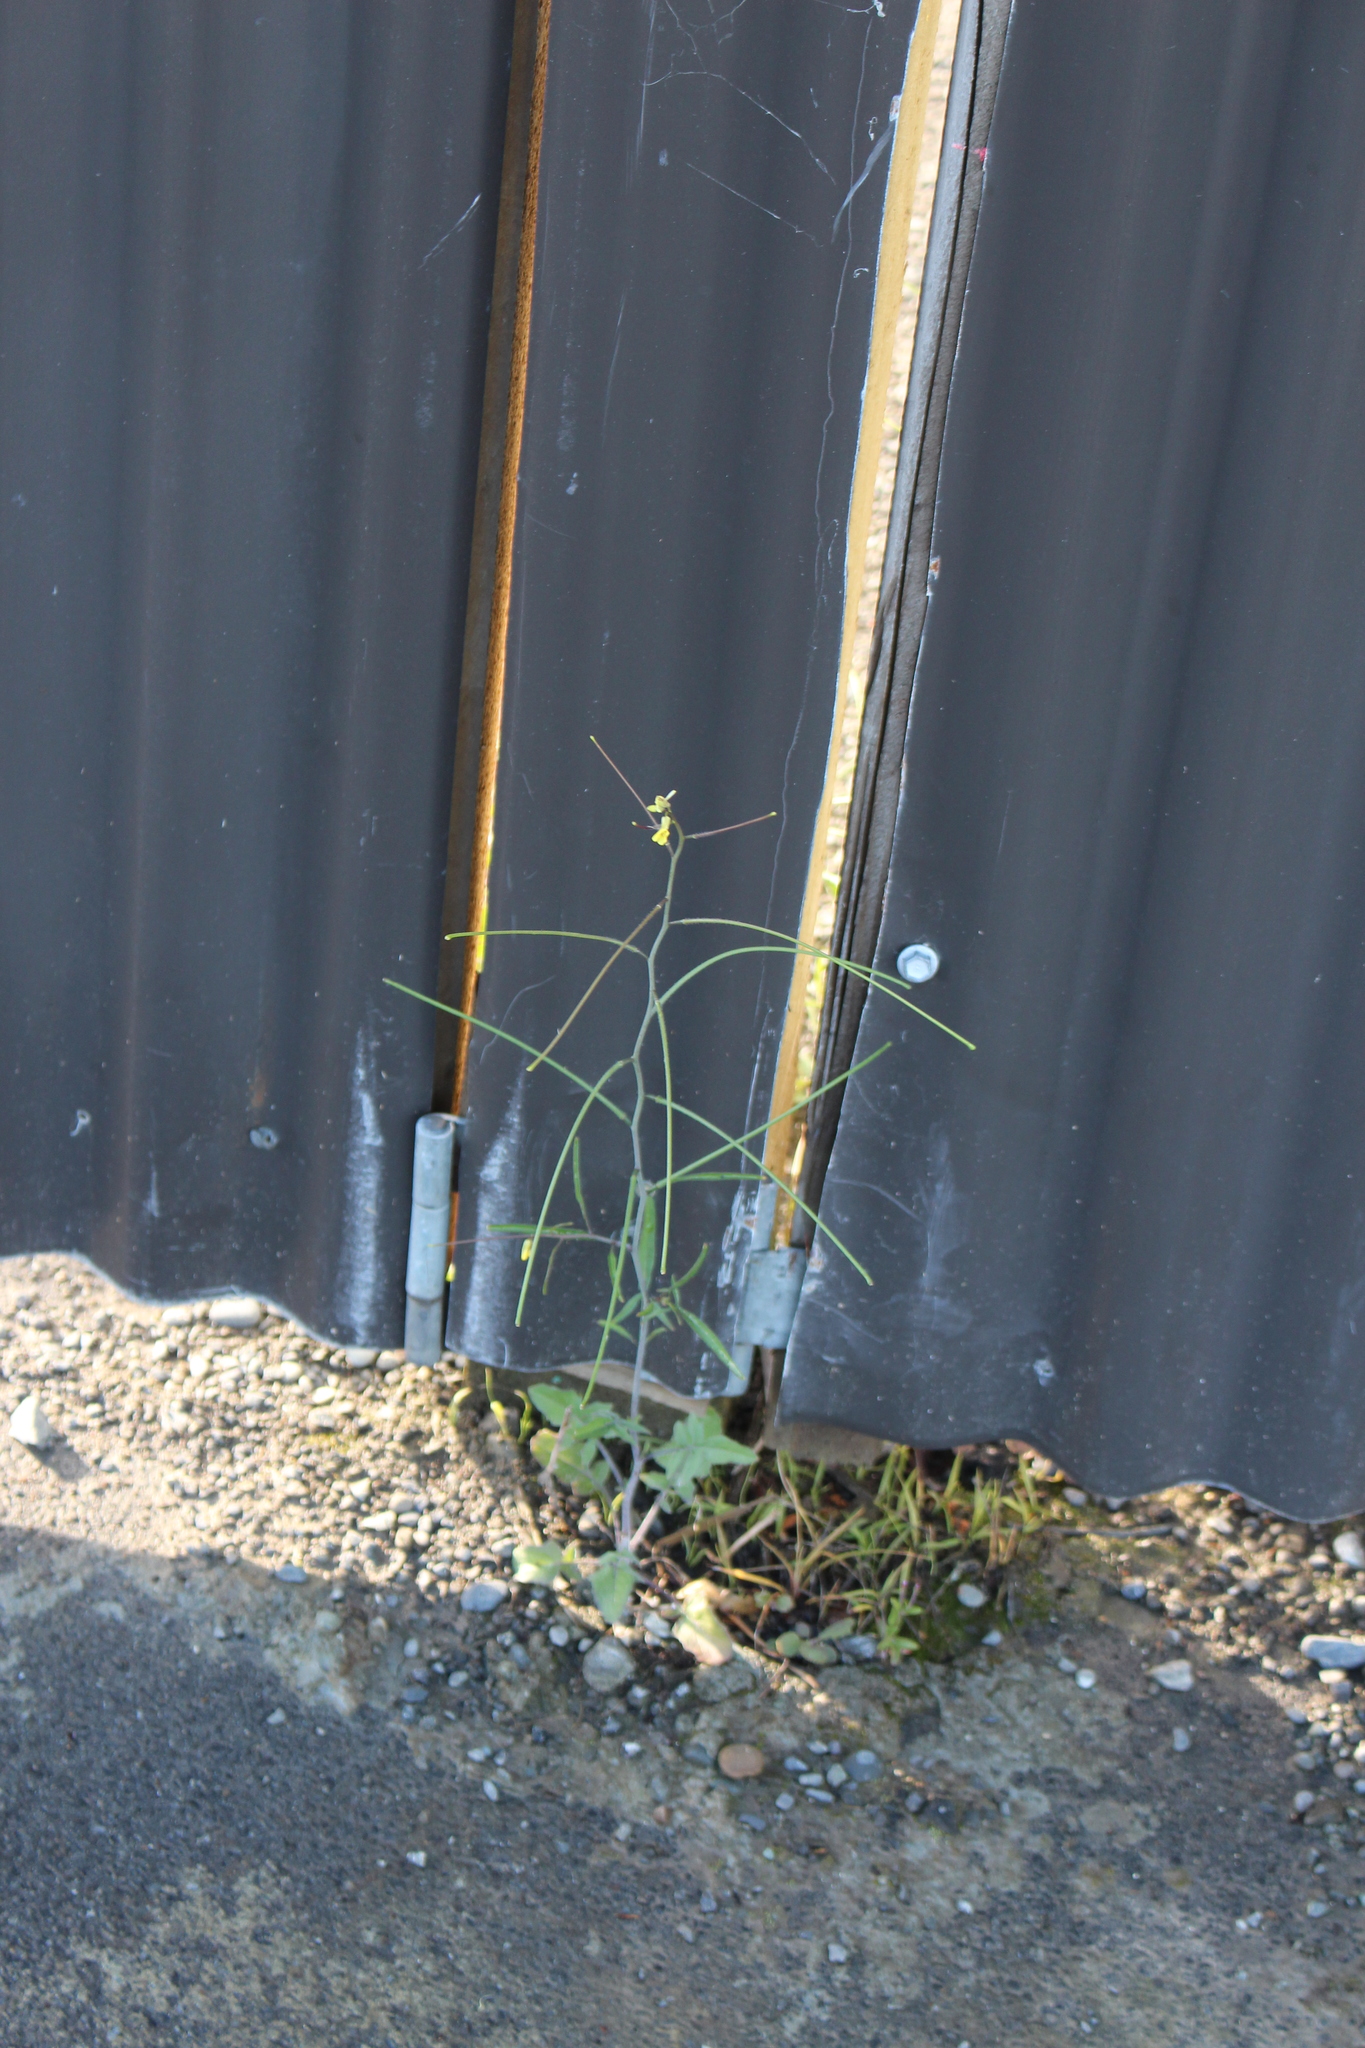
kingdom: Plantae
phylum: Tracheophyta
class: Magnoliopsida
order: Brassicales
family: Brassicaceae
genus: Sisymbrium
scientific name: Sisymbrium orientale
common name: Eastern rocket
